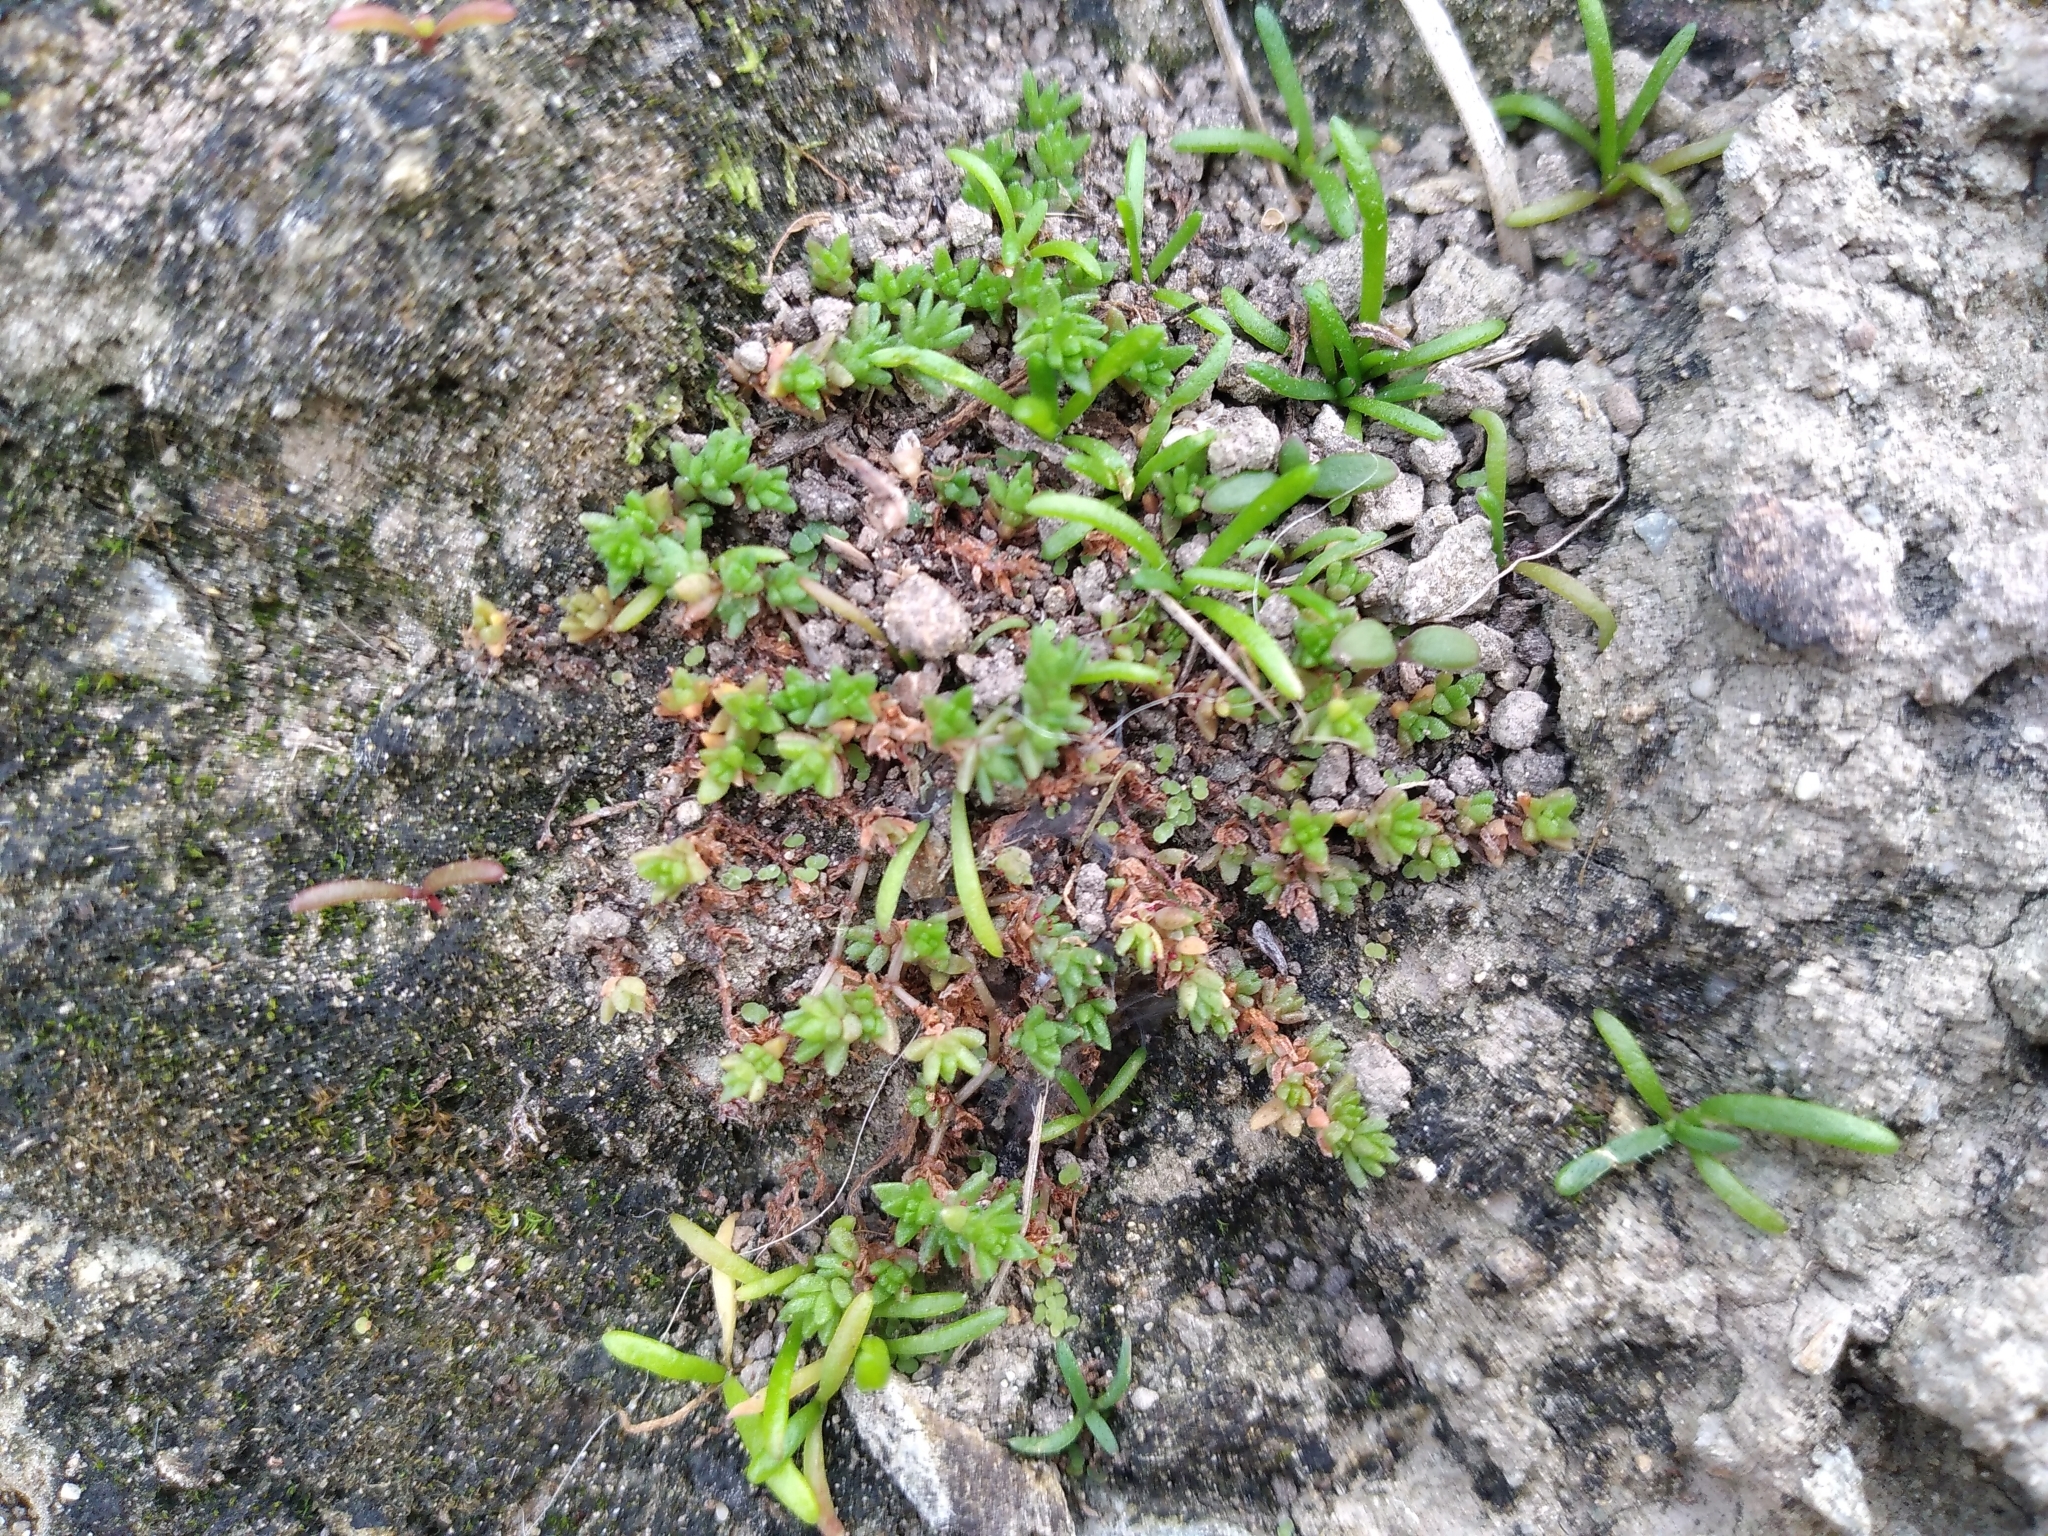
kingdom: Plantae
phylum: Tracheophyta
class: Magnoliopsida
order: Saxifragales
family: Crassulaceae
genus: Crassula
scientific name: Crassula mataikona
